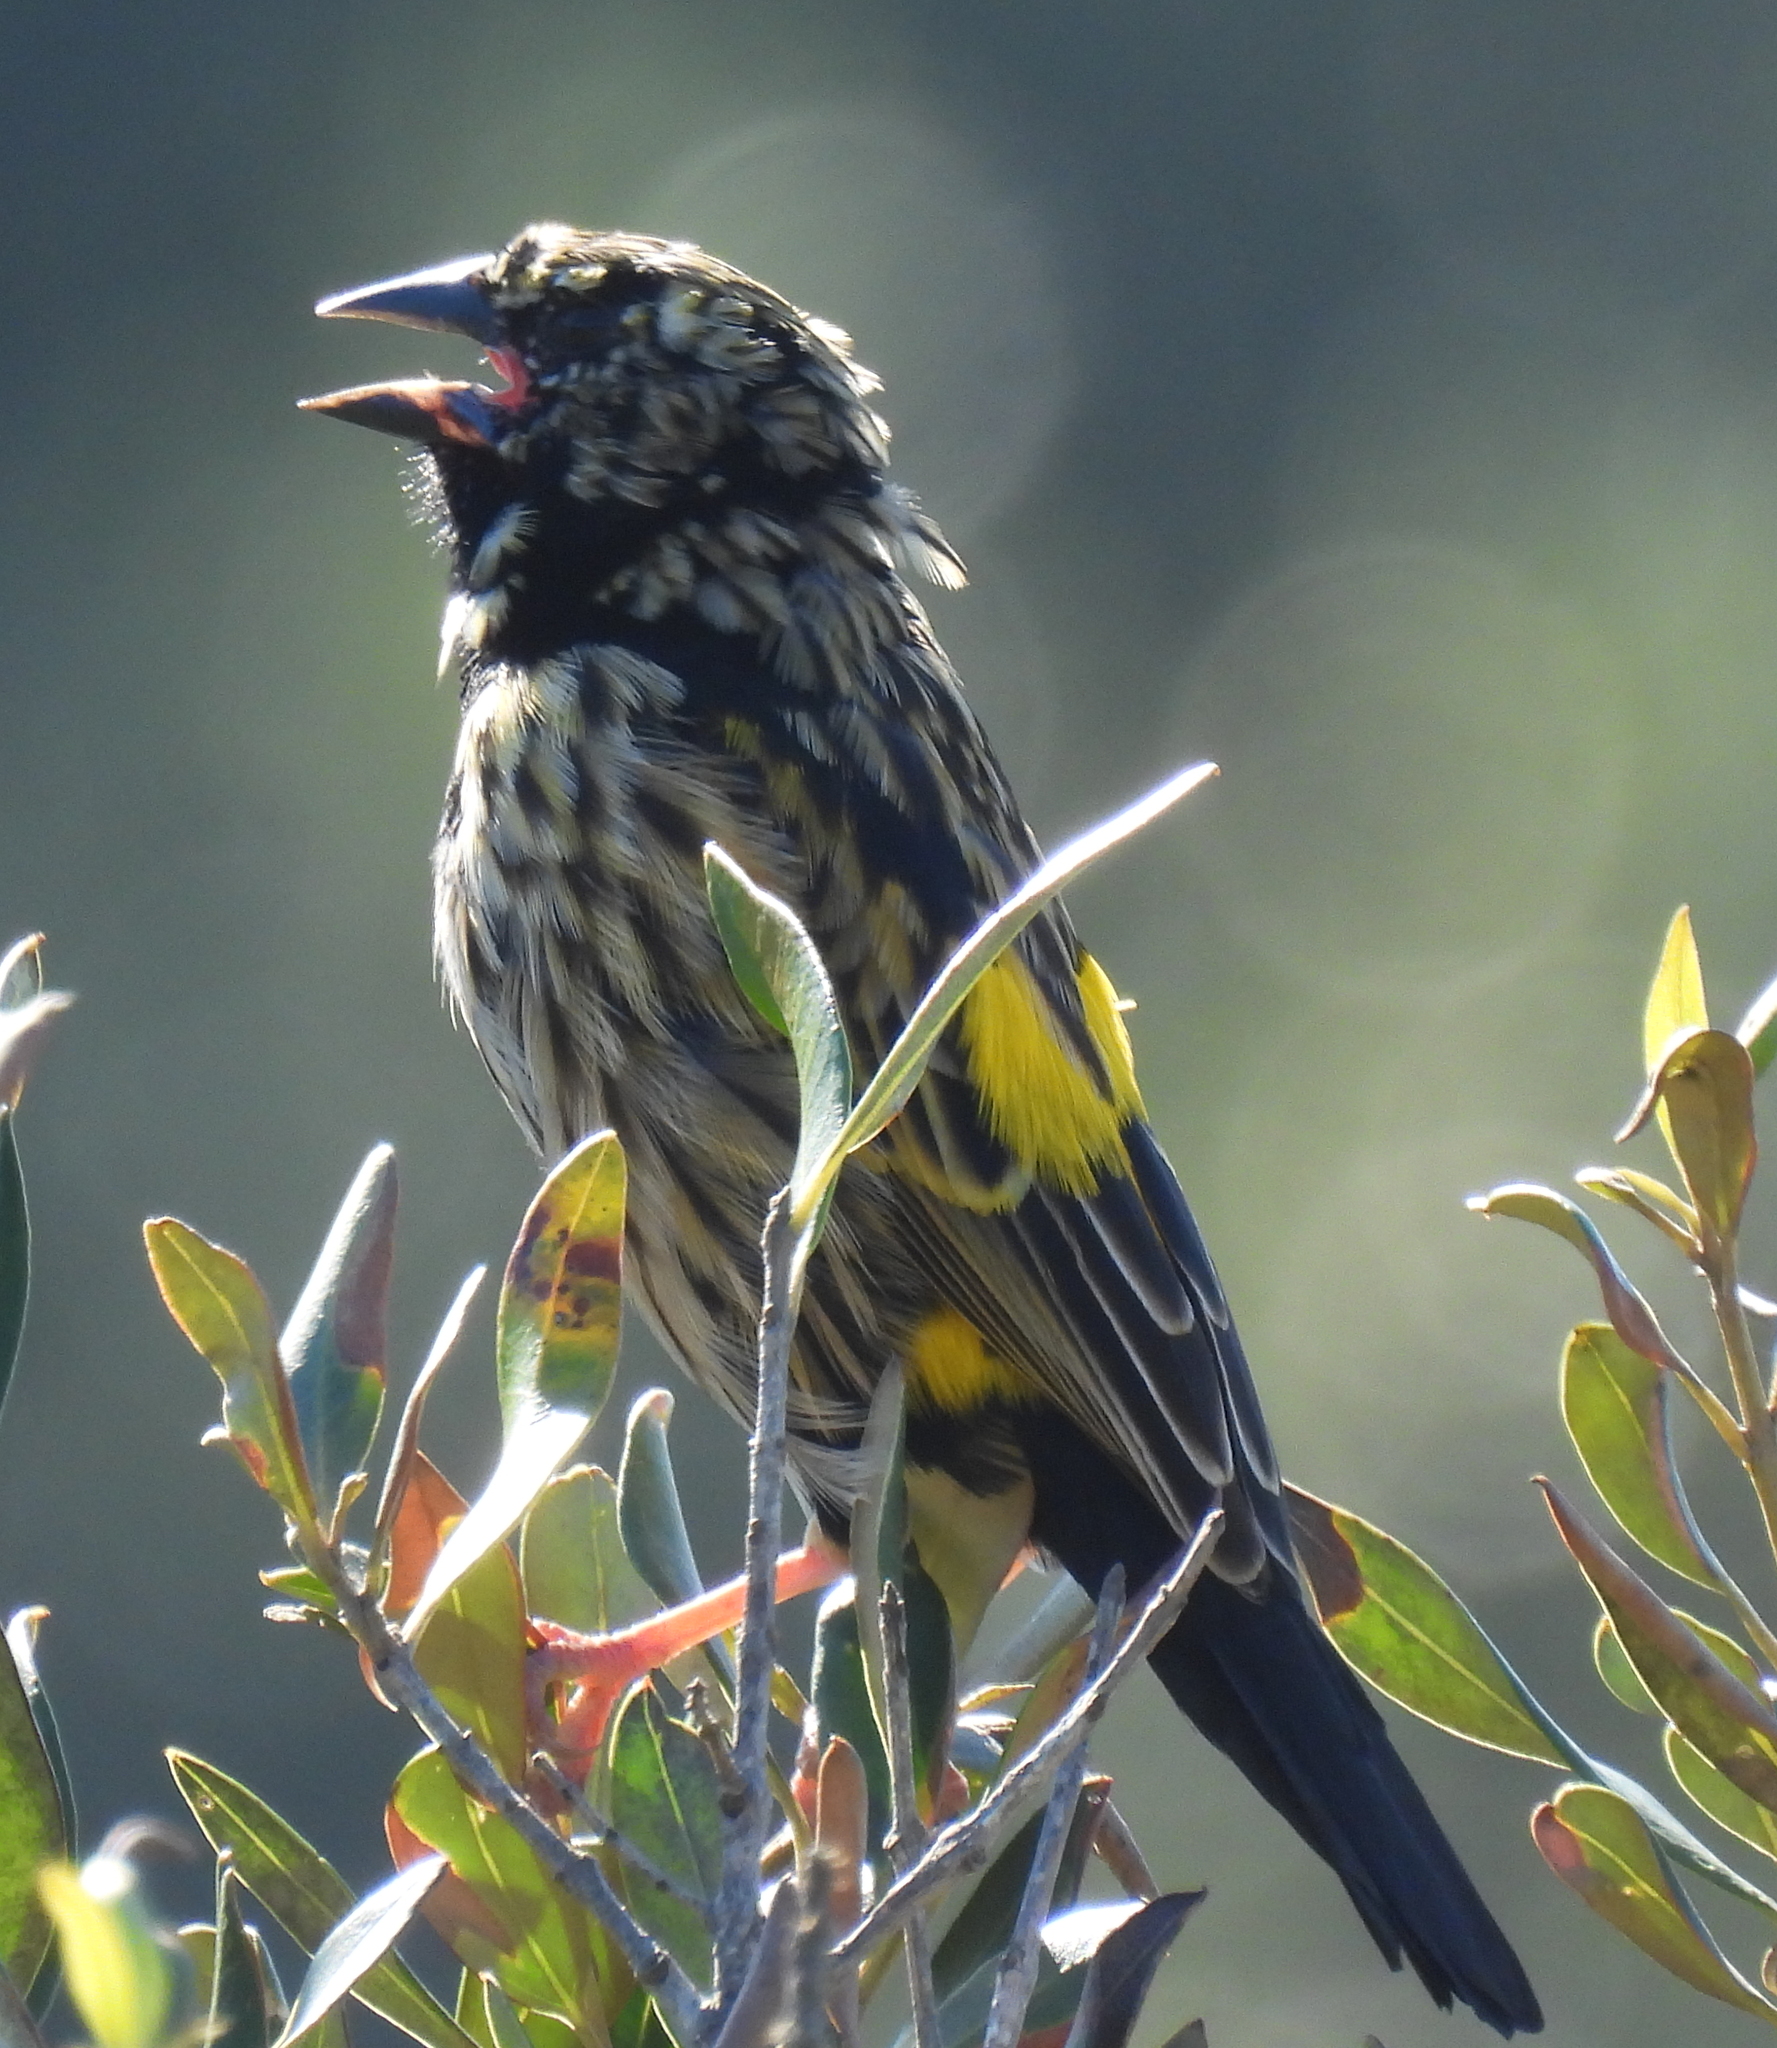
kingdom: Animalia
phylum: Chordata
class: Aves
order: Passeriformes
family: Ploceidae
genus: Euplectes
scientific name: Euplectes capensis
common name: Yellow bishop
